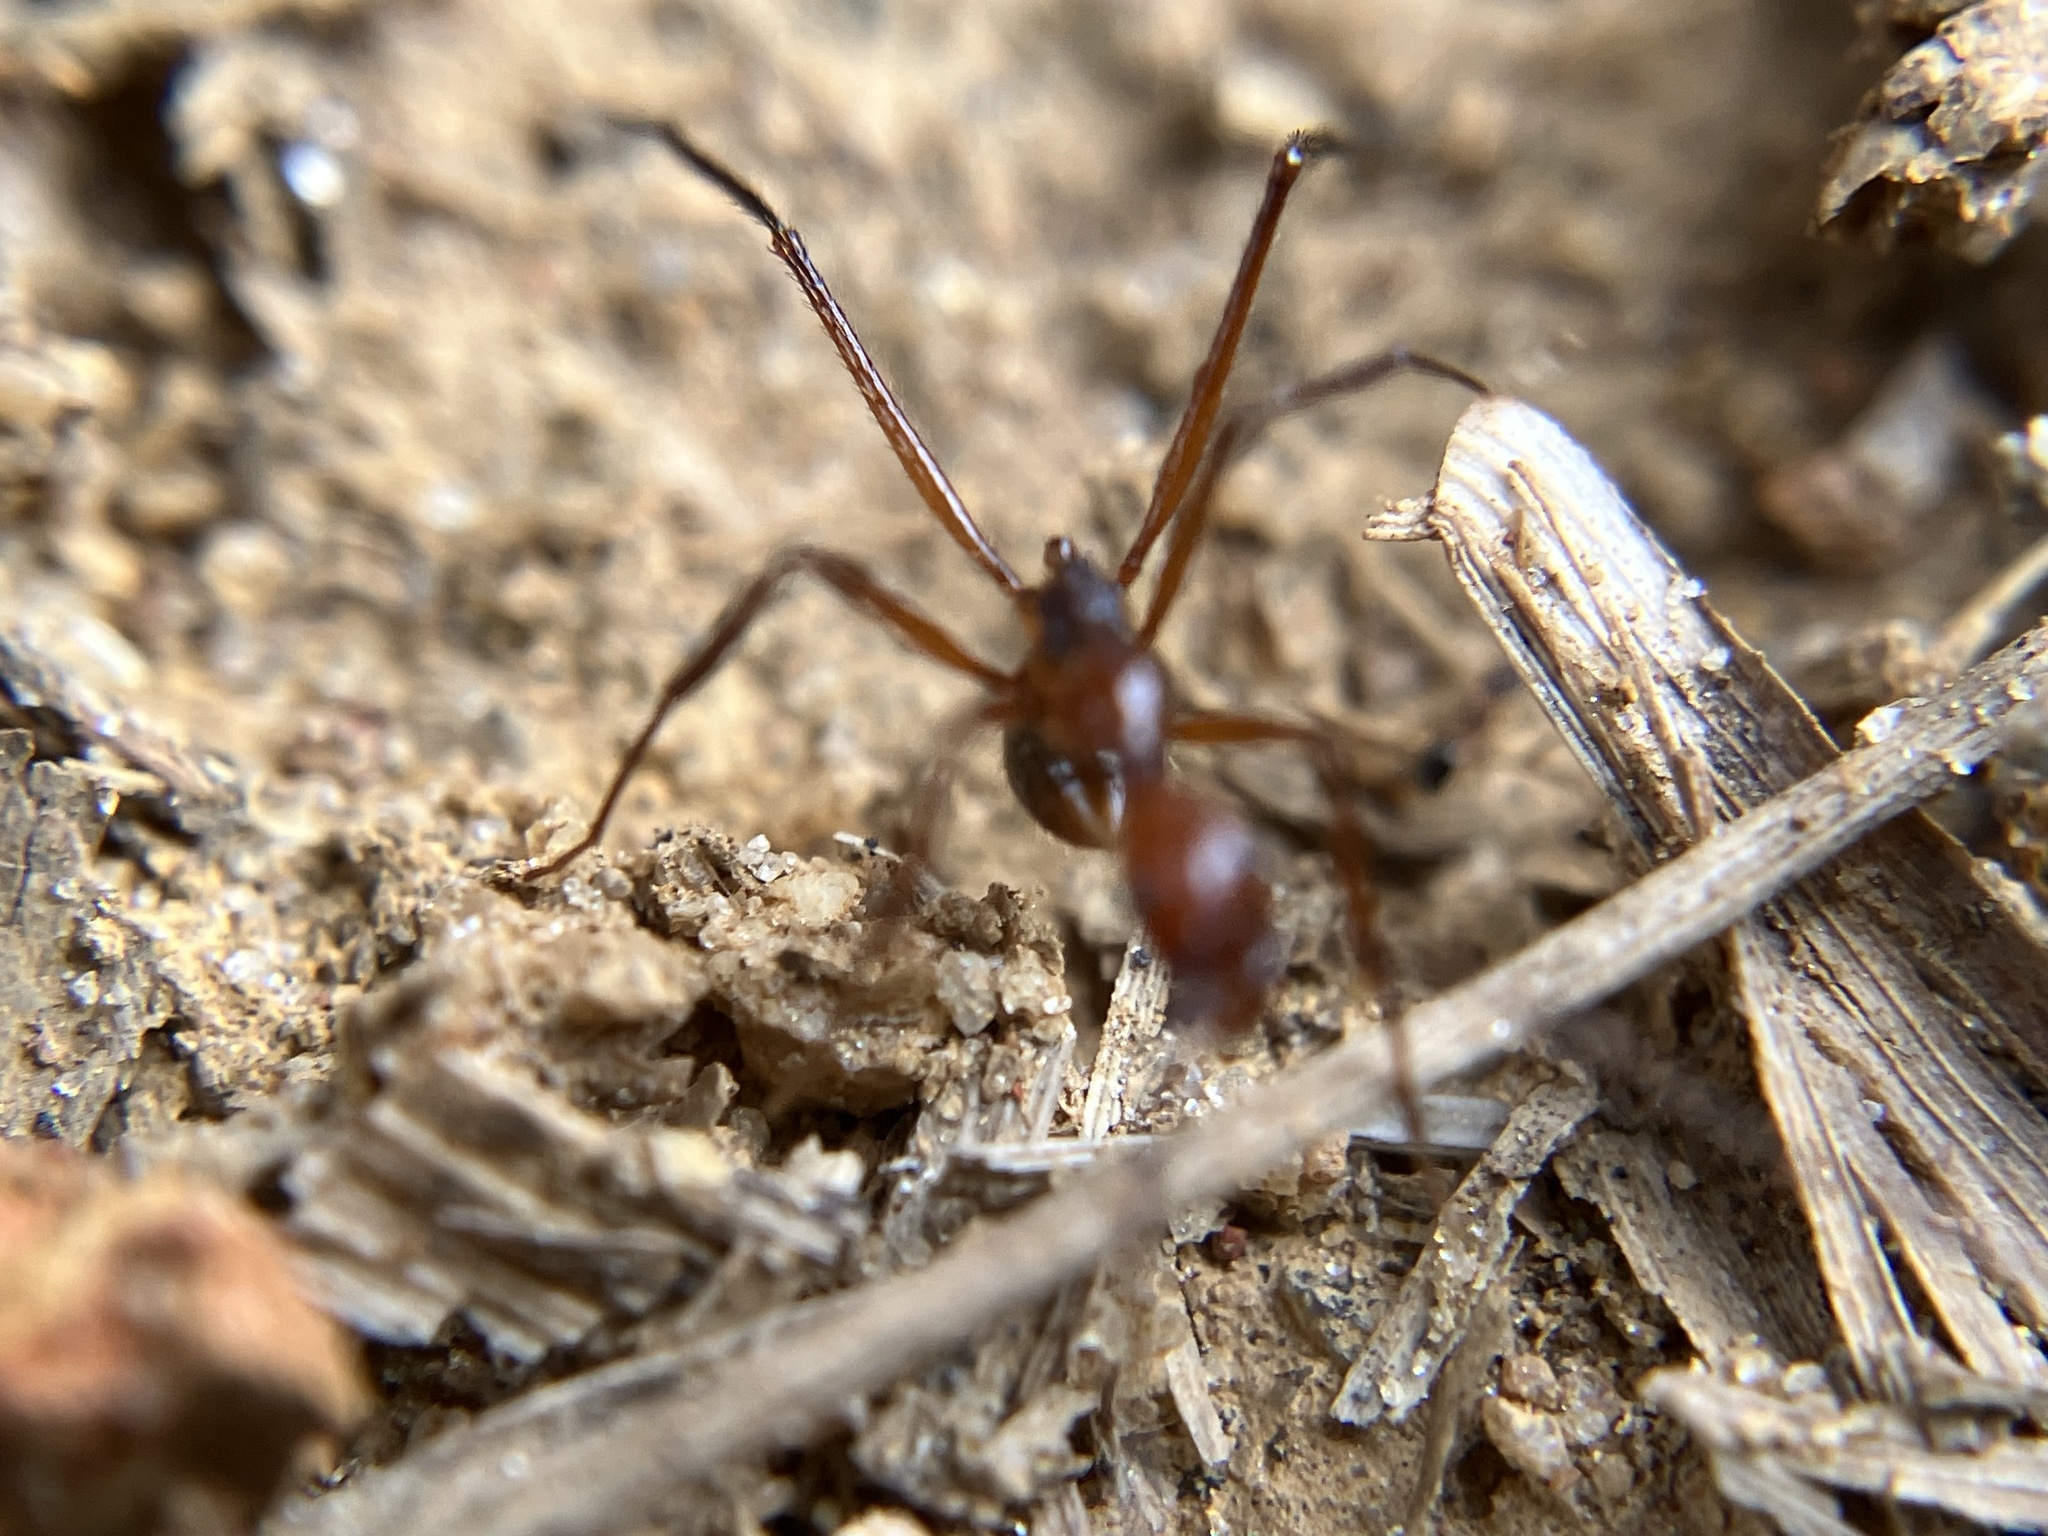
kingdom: Animalia
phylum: Arthropoda
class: Insecta
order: Hymenoptera
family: Formicidae
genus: Aphaenogaster
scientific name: Aphaenogaster beccarii
